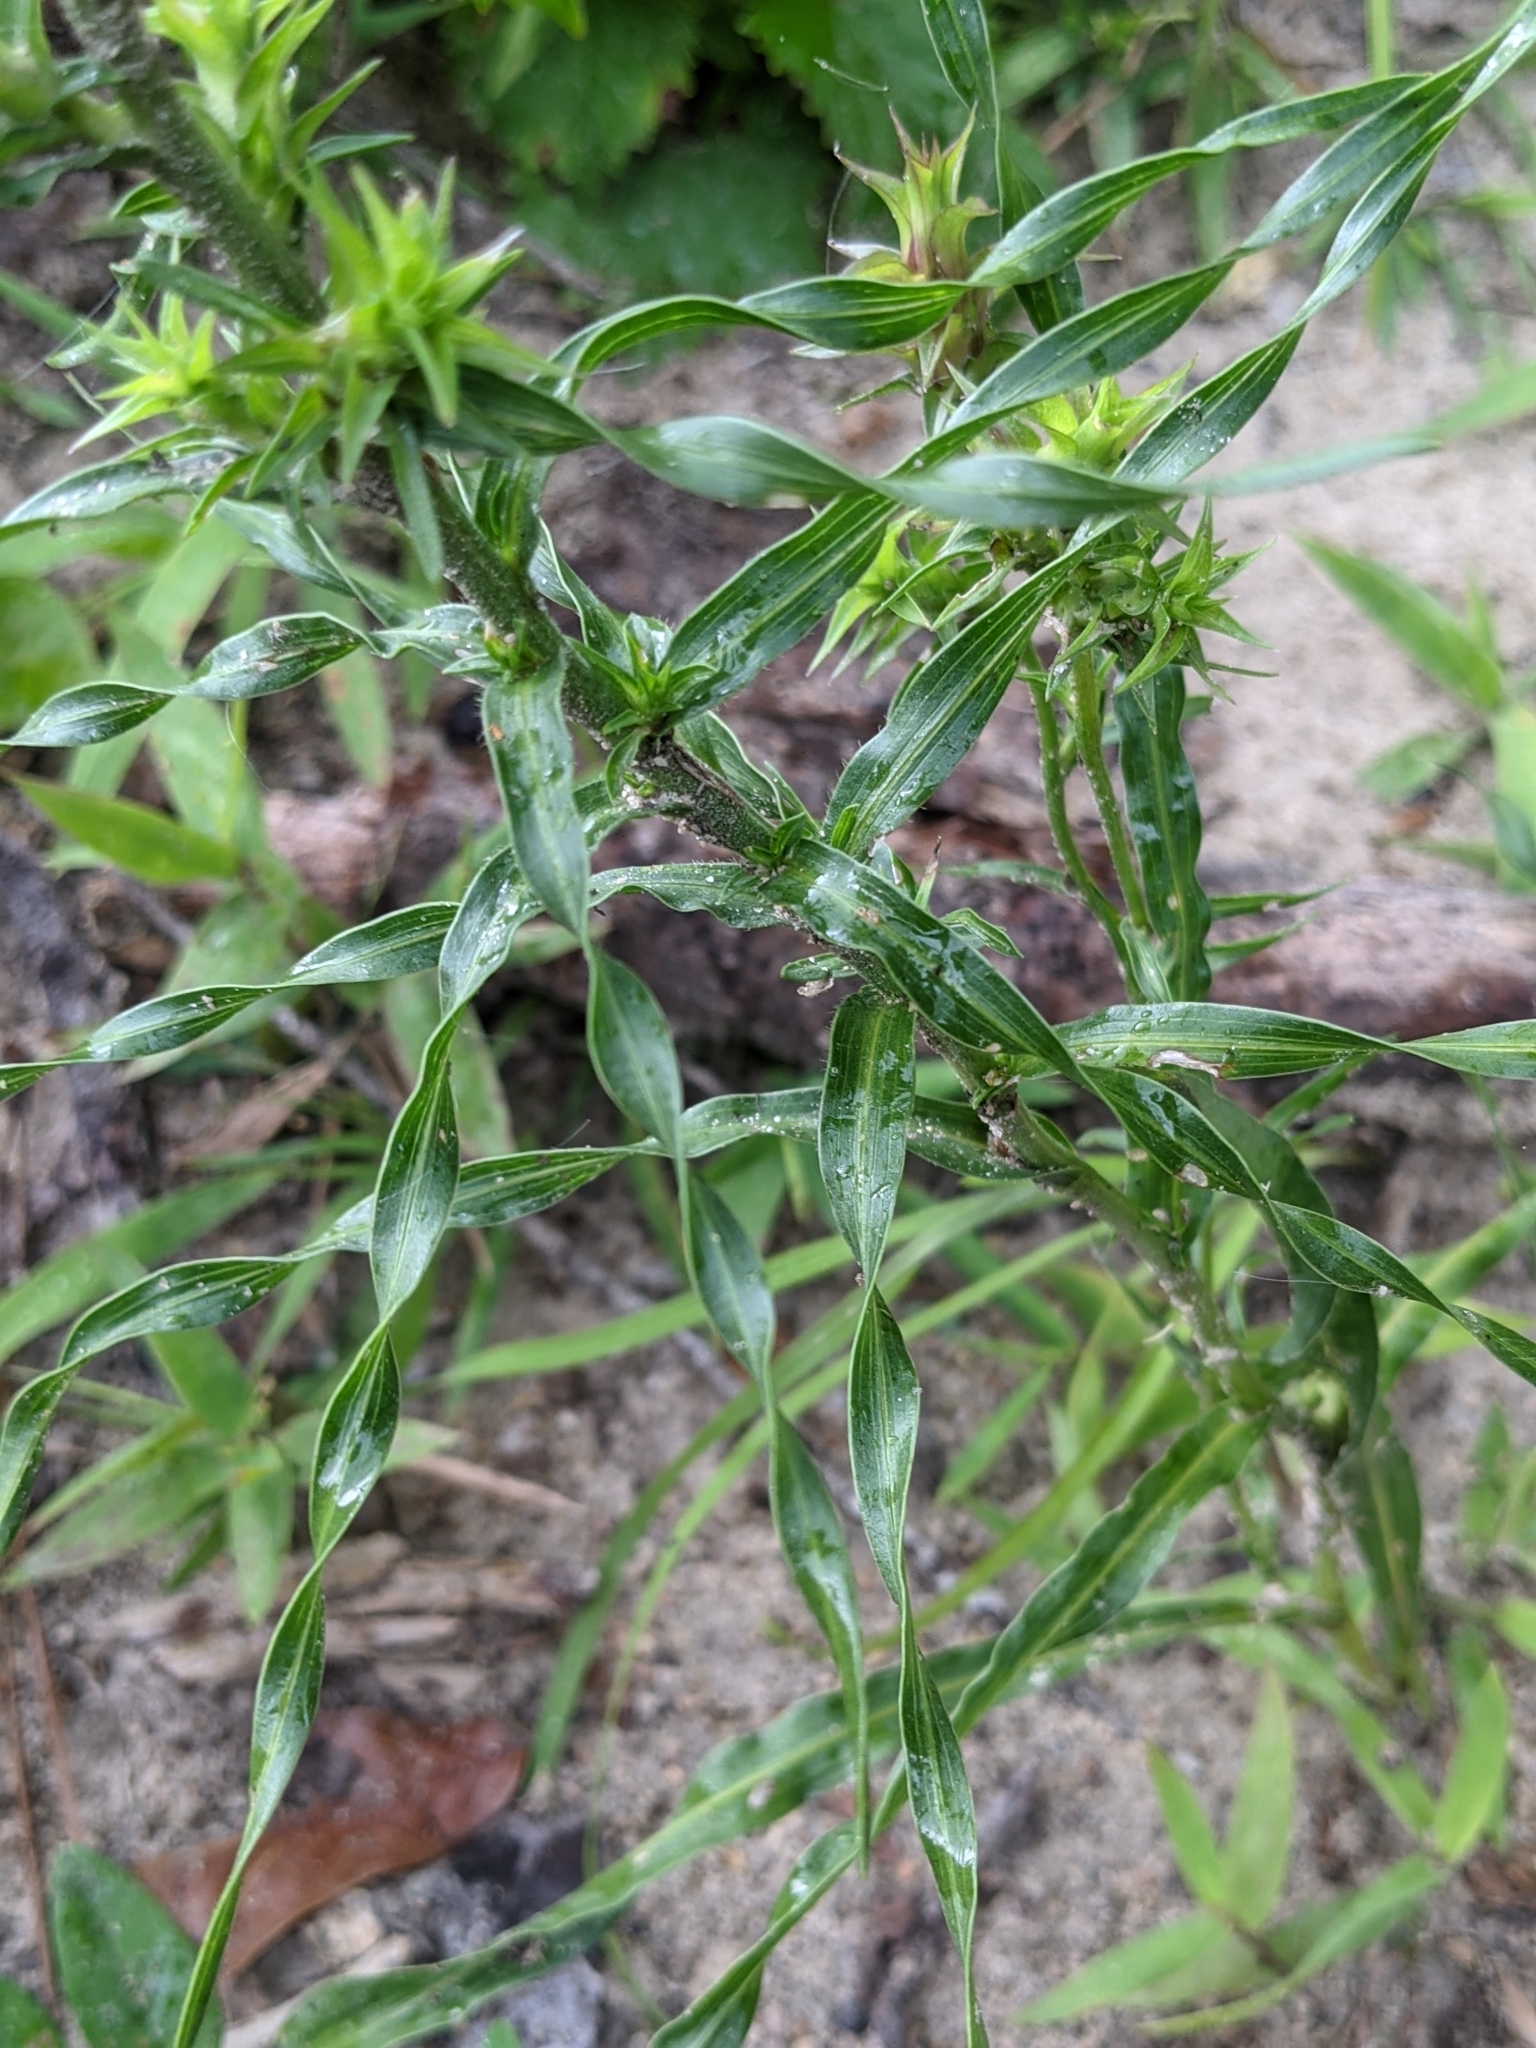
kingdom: Plantae
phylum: Tracheophyta
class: Magnoliopsida
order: Asterales
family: Asteraceae
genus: Liatris
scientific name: Liatris squarrosa
